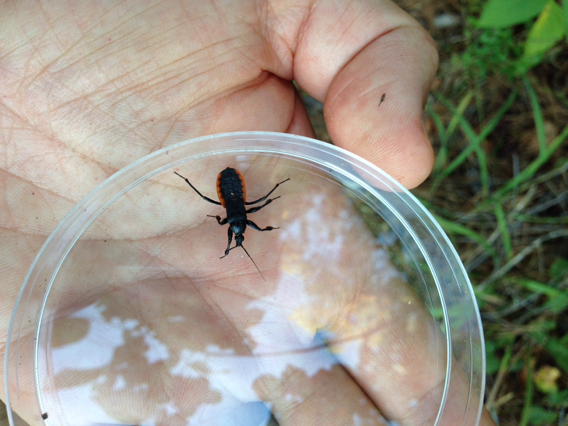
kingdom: Animalia
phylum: Arthropoda
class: Insecta
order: Hemiptera
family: Reduviidae
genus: Melanolestes
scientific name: Melanolestes picipes
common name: Assassin bug
